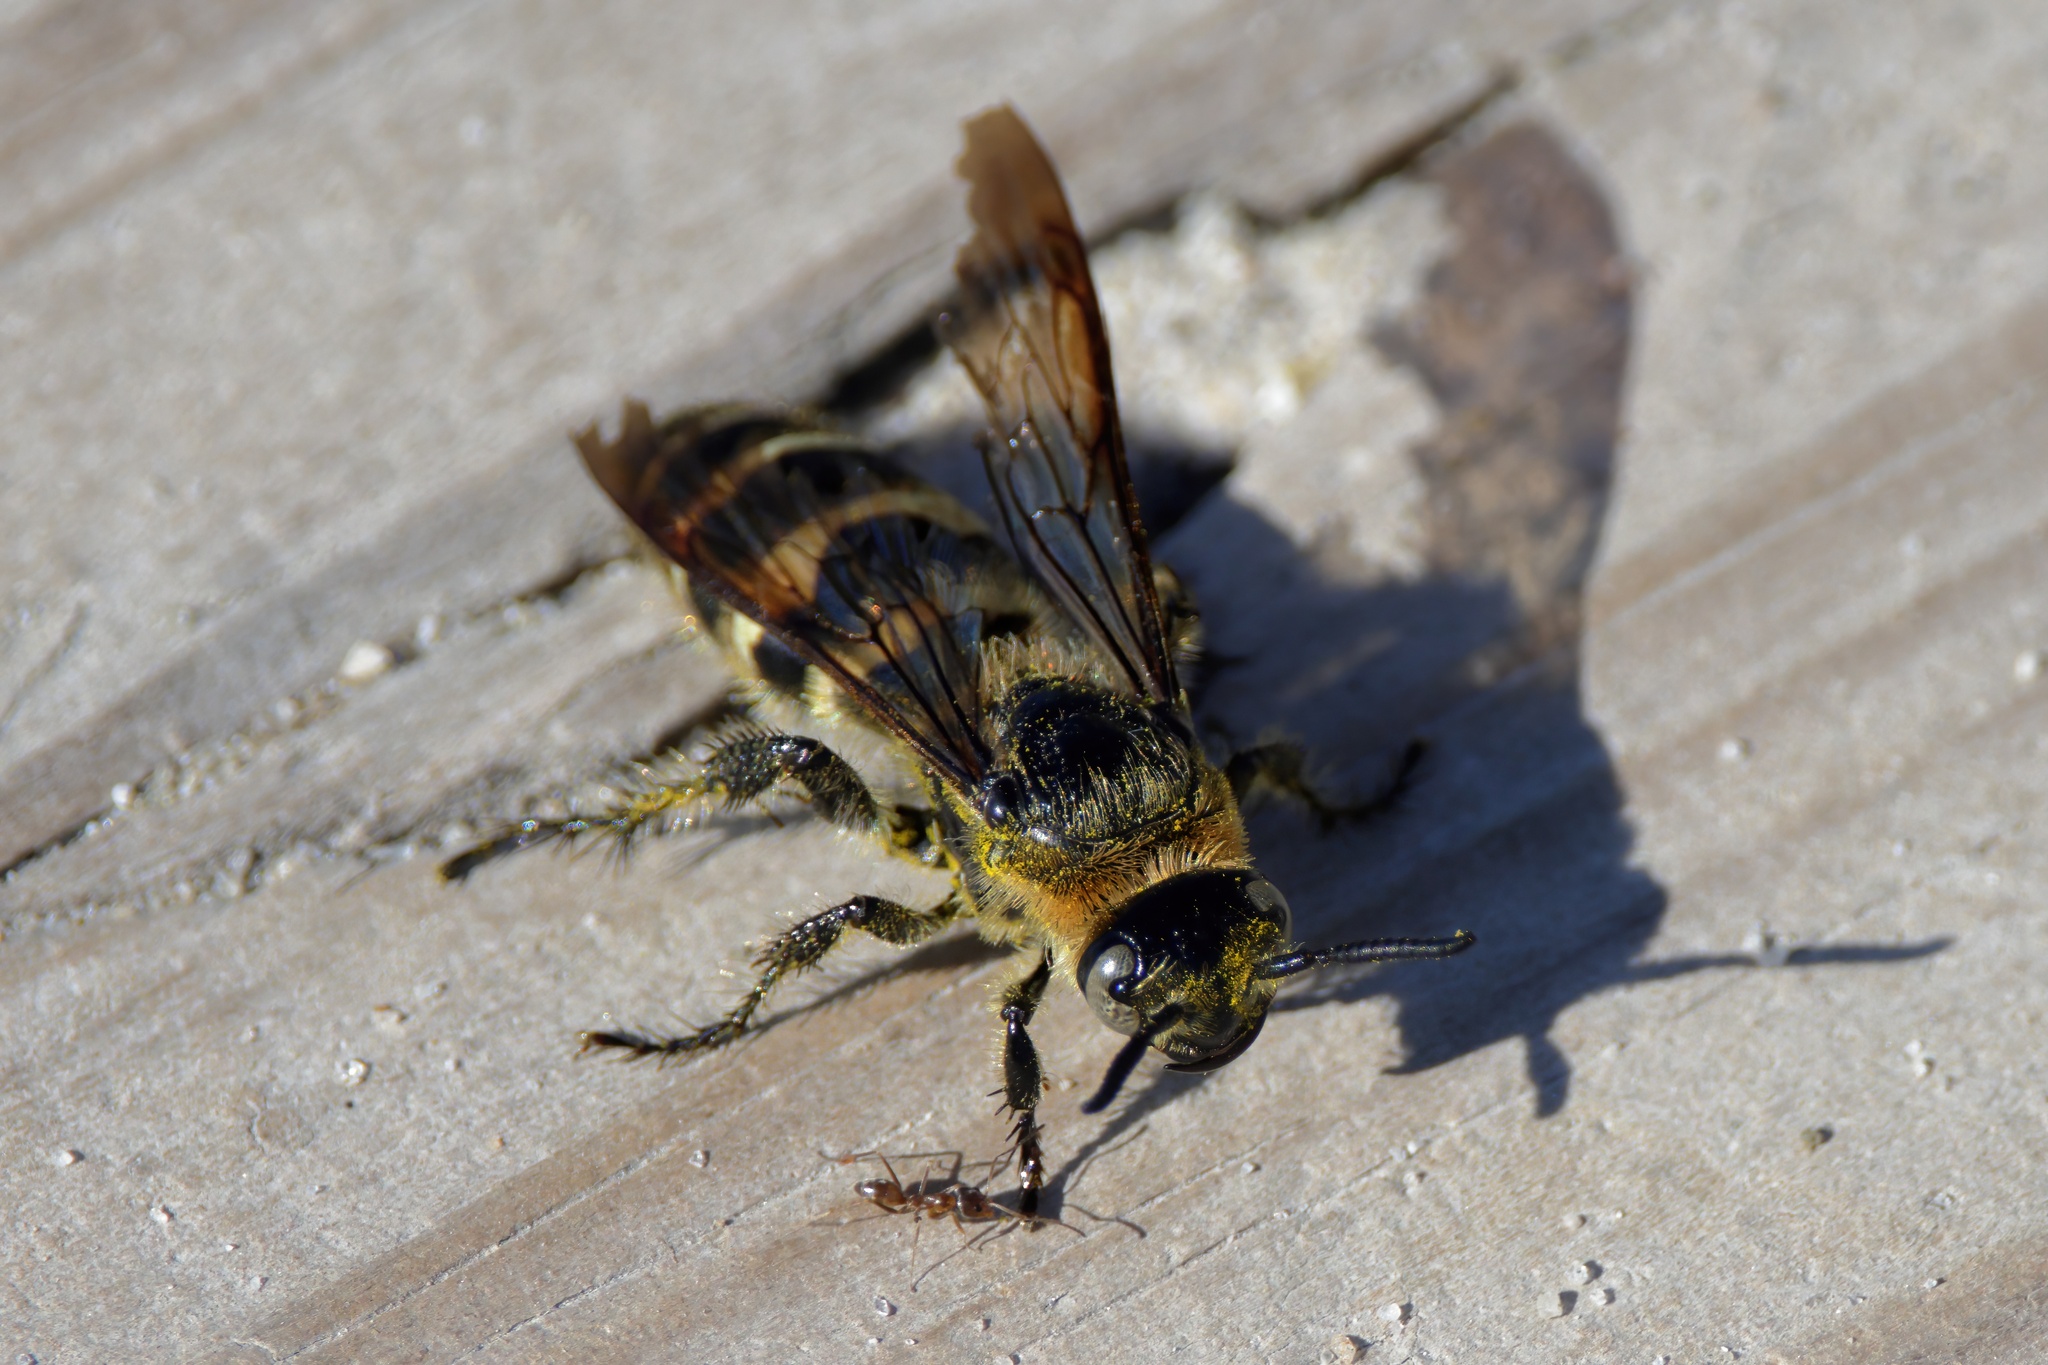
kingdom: Animalia
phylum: Arthropoda
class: Insecta
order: Hymenoptera
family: Scoliidae
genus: Dielis
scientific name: Dielis
